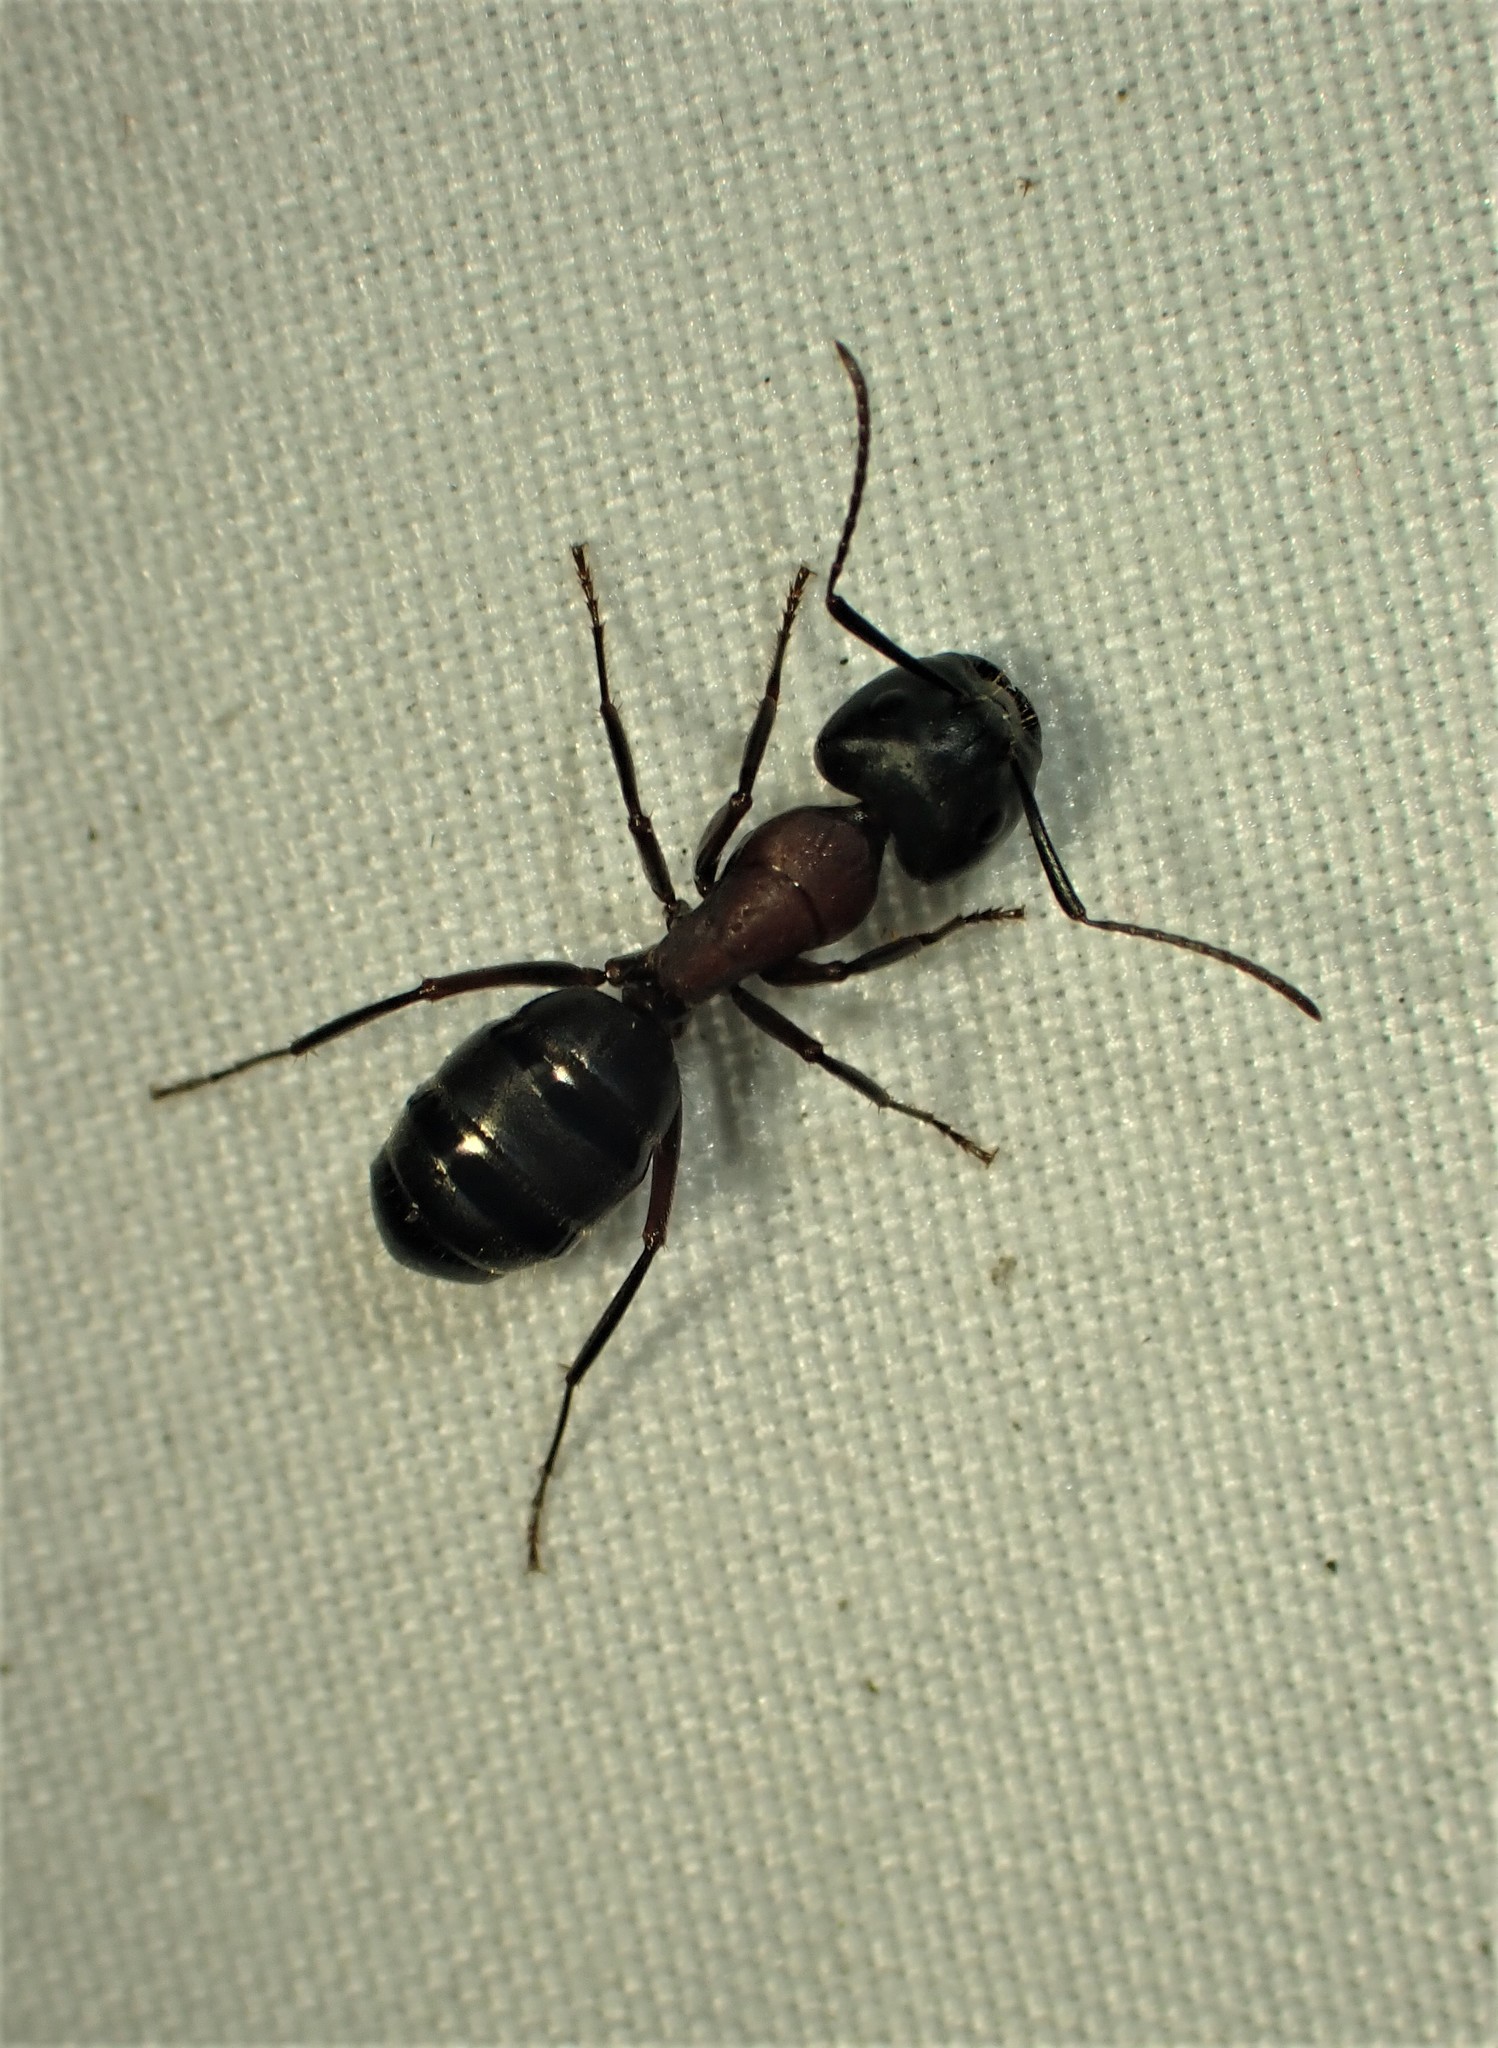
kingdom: Animalia
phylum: Arthropoda
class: Insecta
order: Hymenoptera
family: Formicidae
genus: Camponotus
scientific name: Camponotus novaeboracensis
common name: New york carpenter ant
